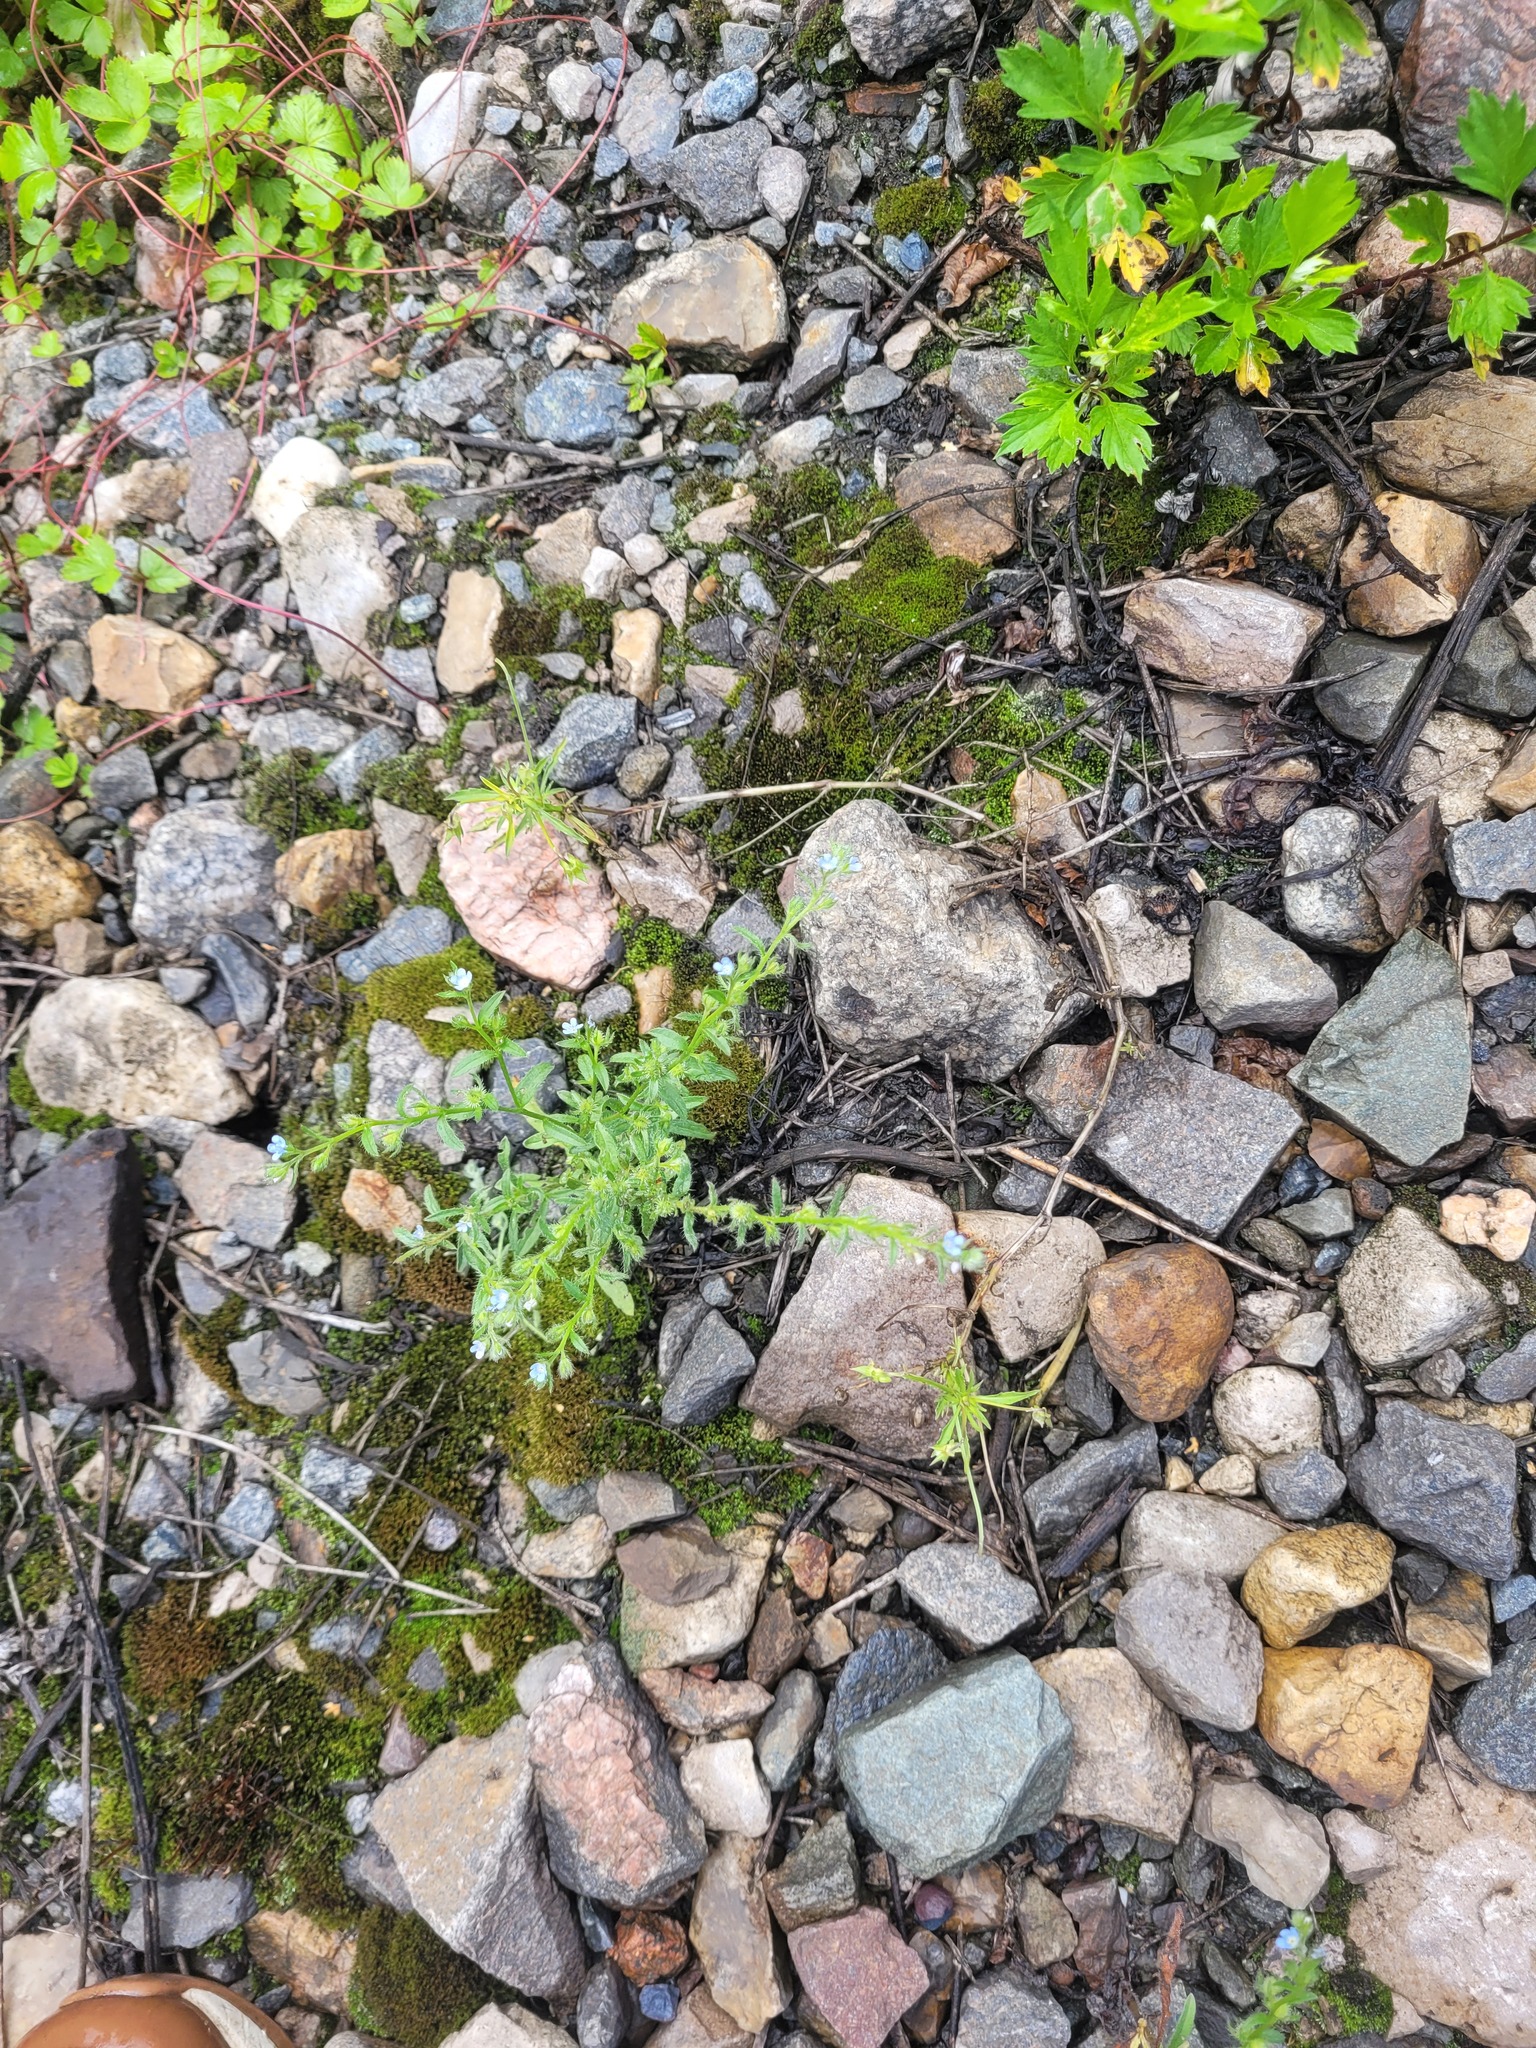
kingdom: Plantae
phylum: Tracheophyta
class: Magnoliopsida
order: Boraginales
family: Boraginaceae
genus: Lappula
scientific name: Lappula squarrosa
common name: European stickseed
